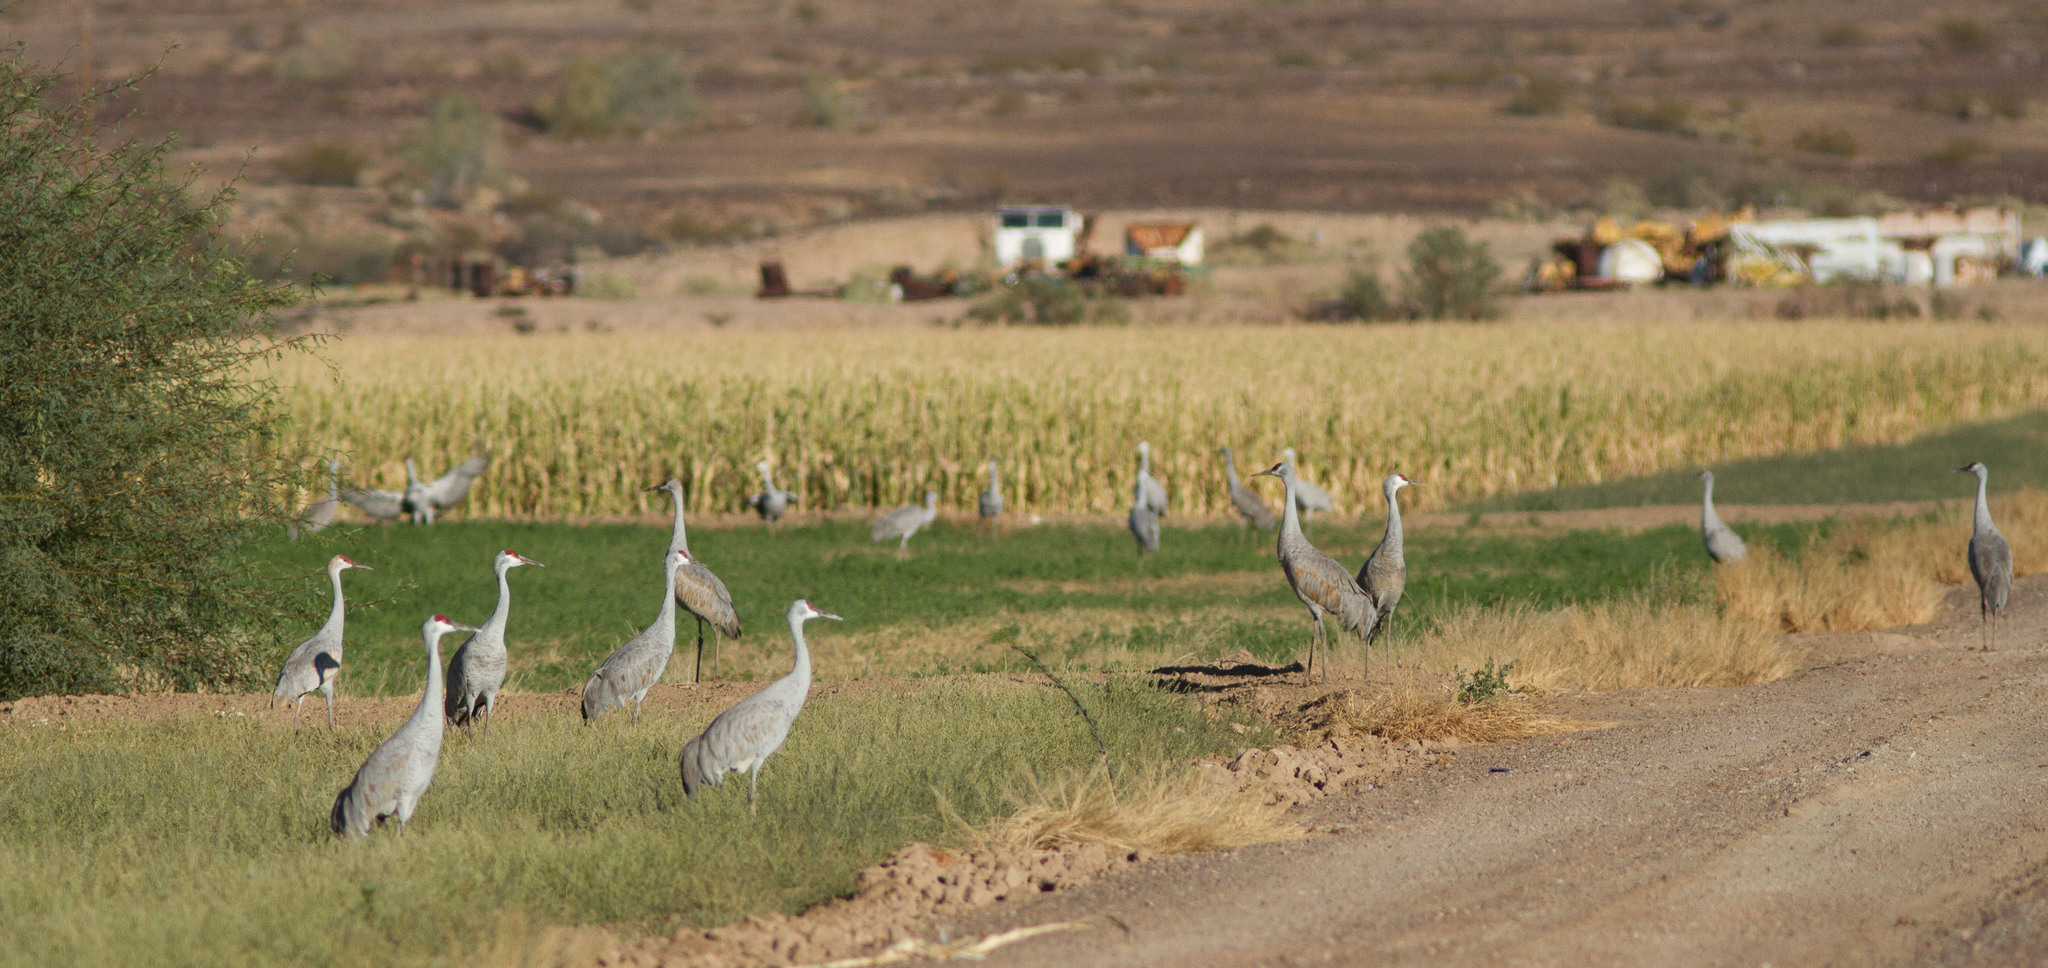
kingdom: Animalia
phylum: Chordata
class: Aves
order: Gruiformes
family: Gruidae
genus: Grus
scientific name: Grus canadensis
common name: Sandhill crane
